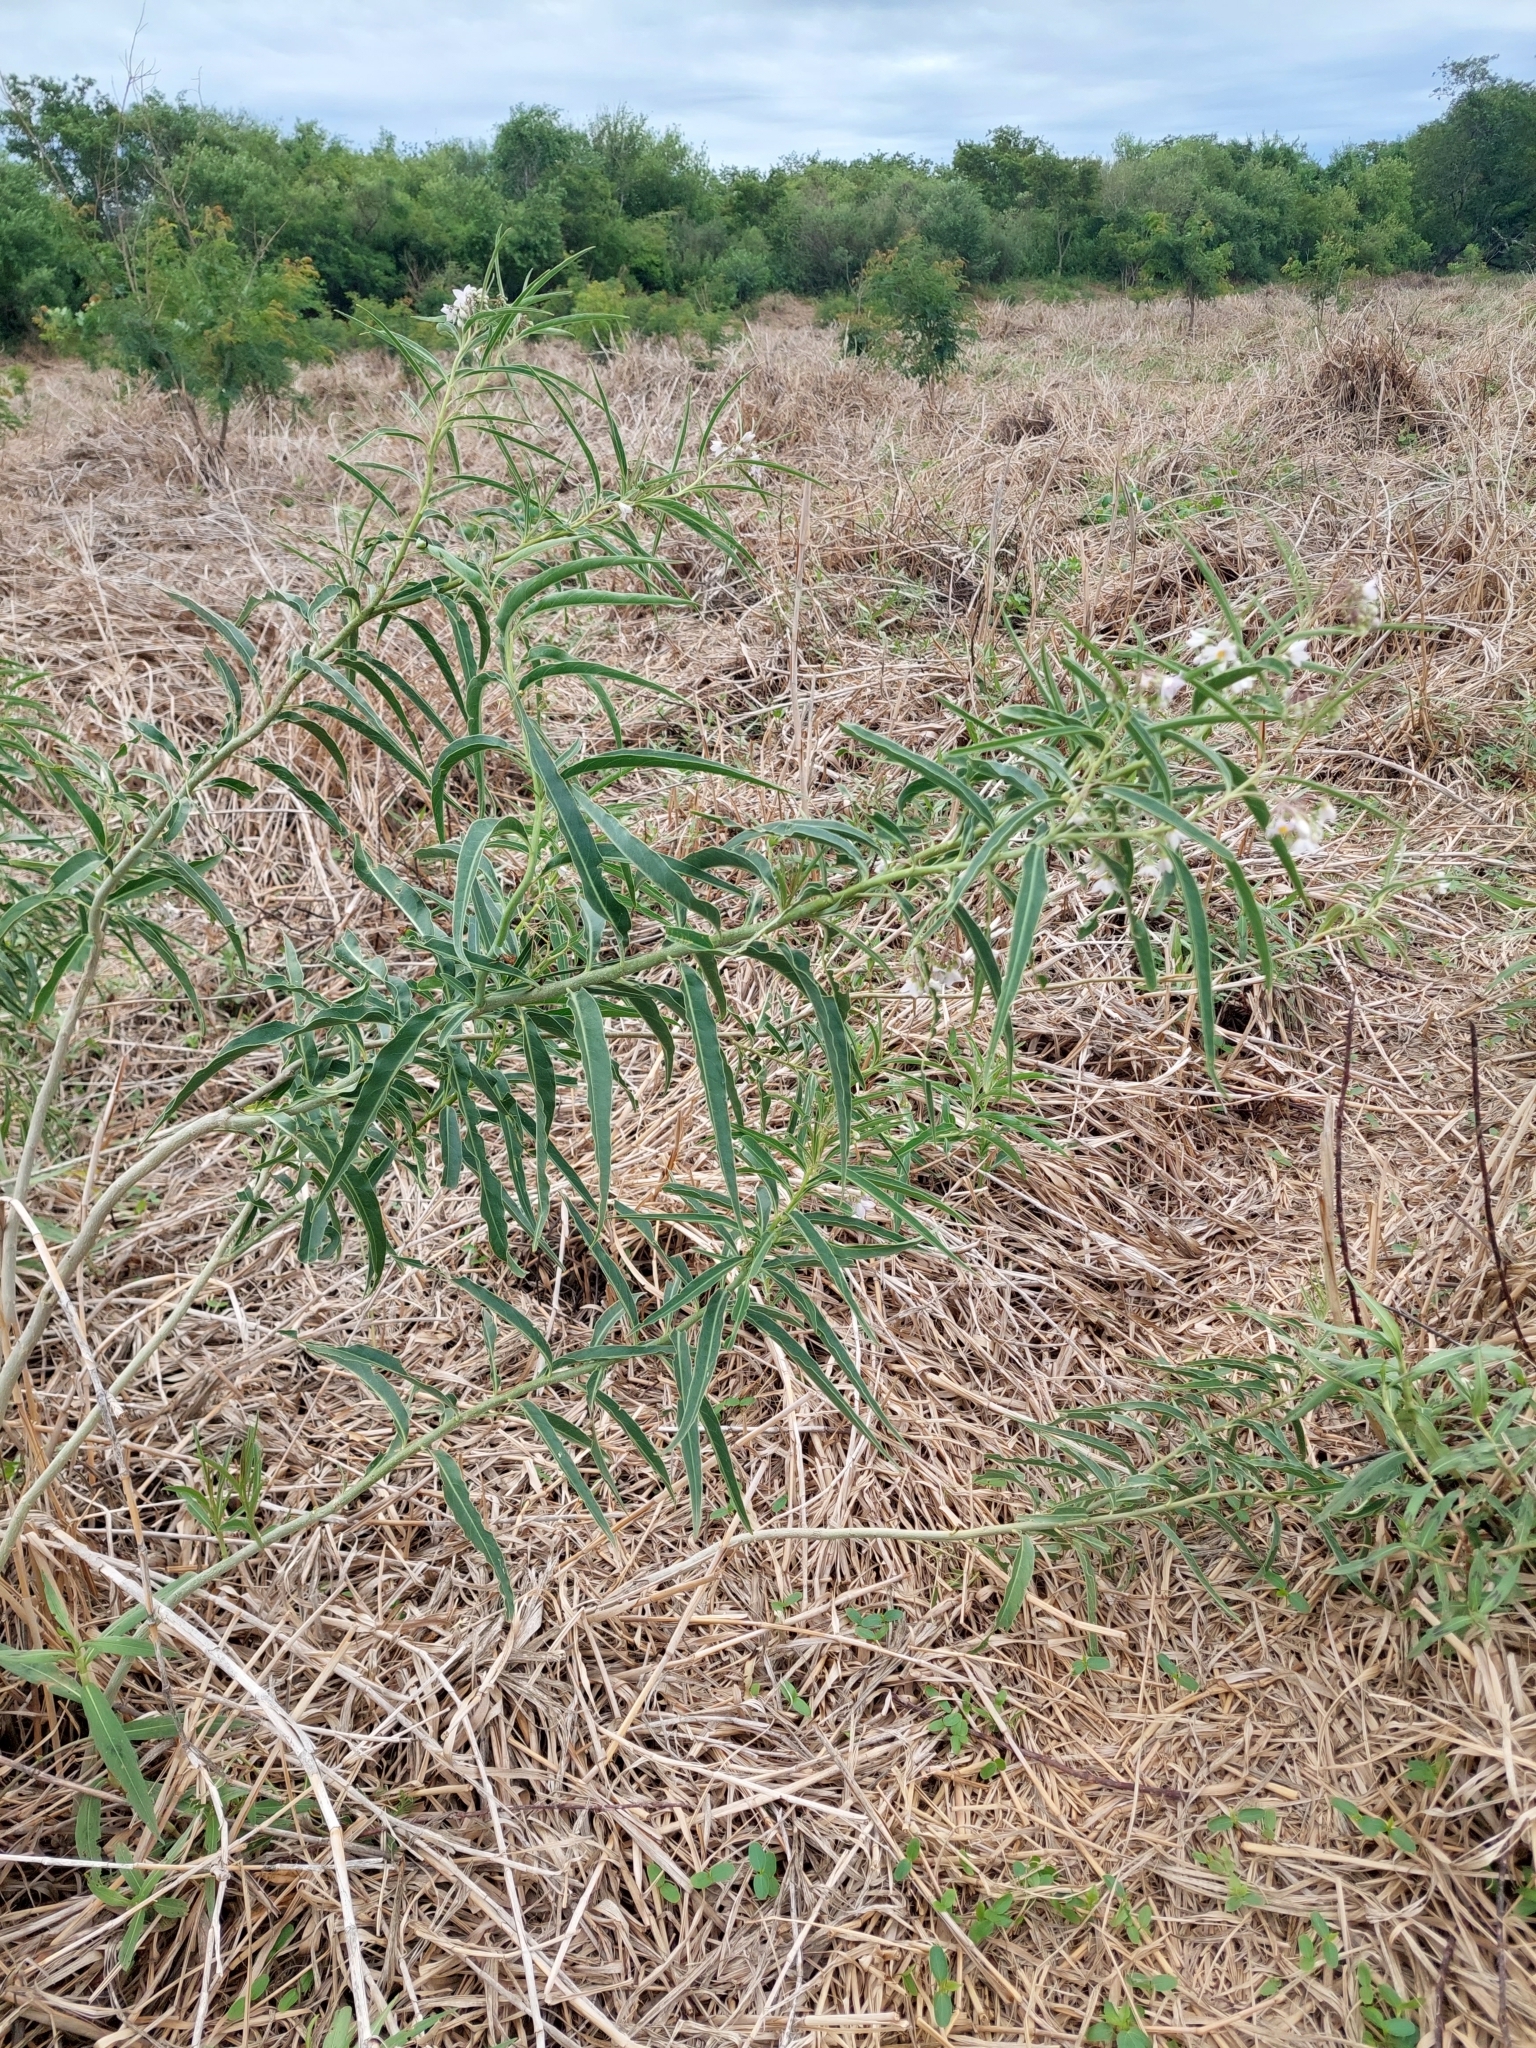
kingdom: Plantae
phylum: Tracheophyta
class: Magnoliopsida
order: Solanales
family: Solanaceae
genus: Solanum
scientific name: Solanum glaucophyllum
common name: Waxyleaf nightshade
